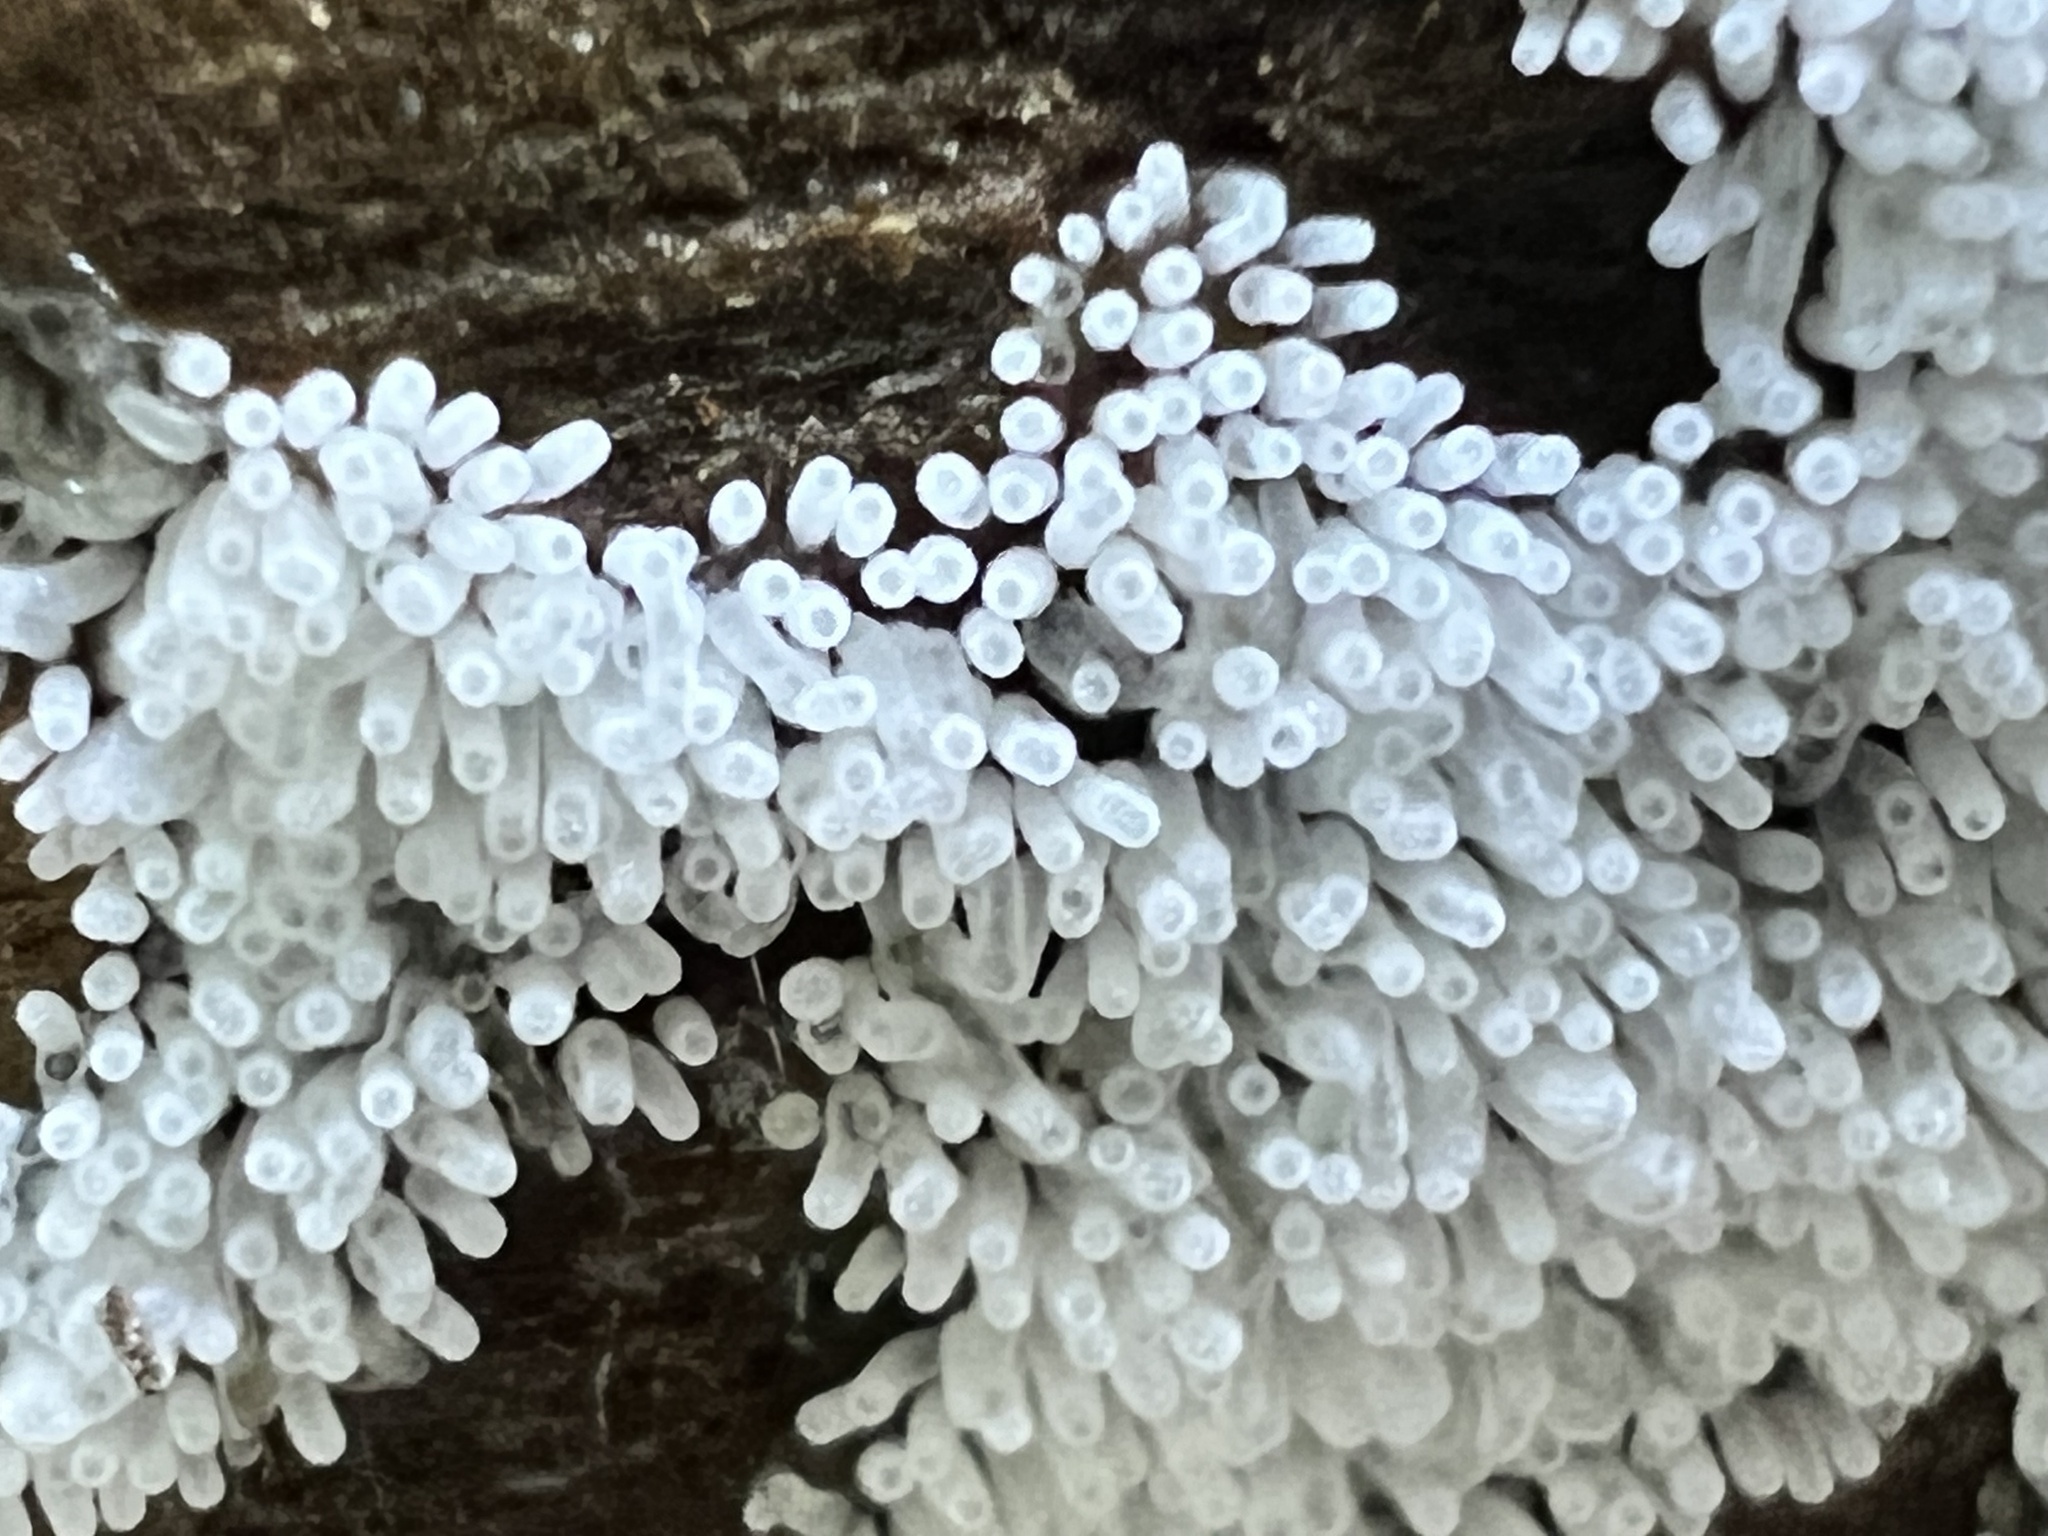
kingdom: Protozoa
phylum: Mycetozoa
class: Protosteliomycetes
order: Ceratiomyxales
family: Ceratiomyxaceae
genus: Ceratiomyxa
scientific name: Ceratiomyxa fruticulosa
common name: Honeycomb coral slime mold
